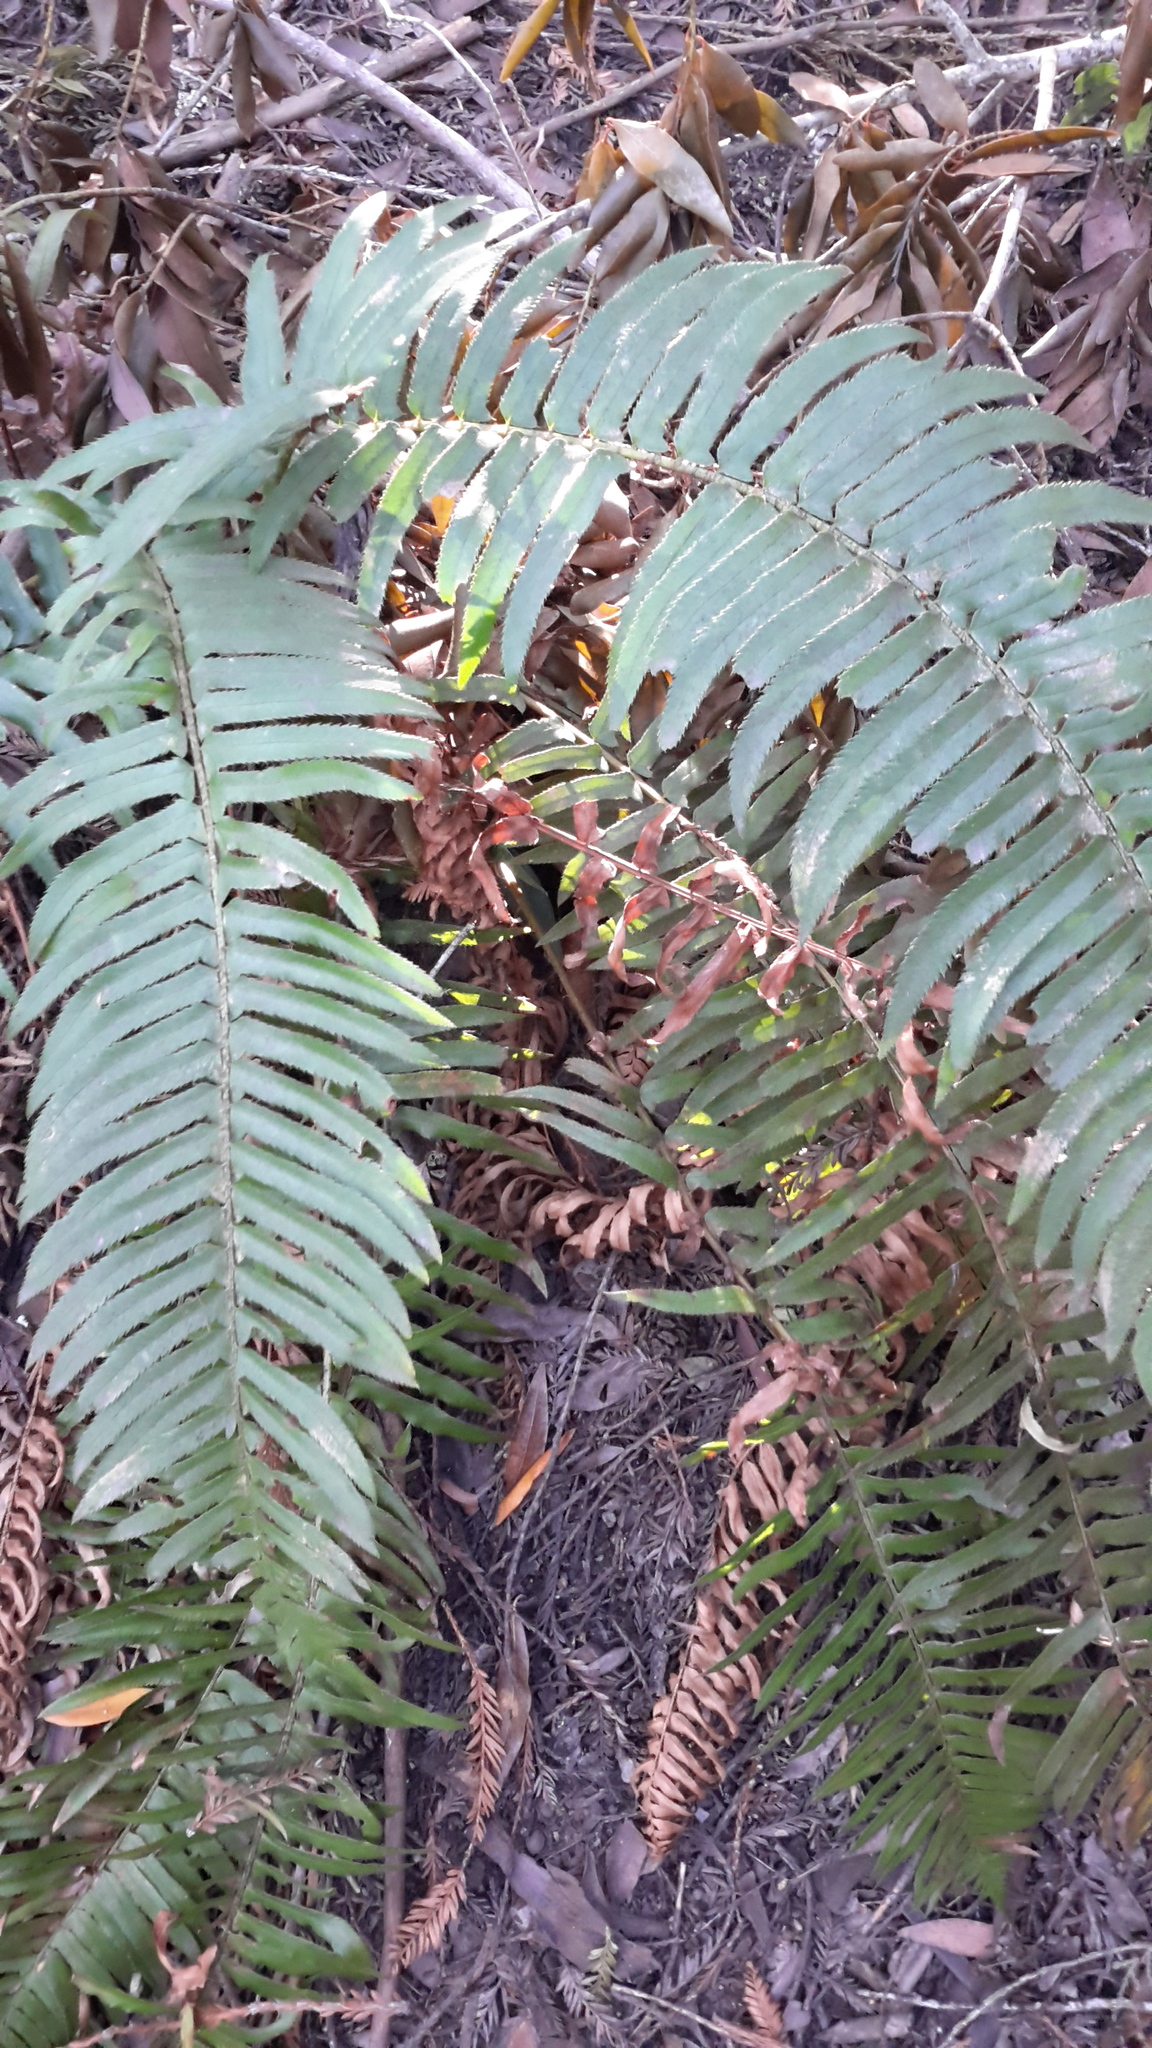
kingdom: Plantae
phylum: Tracheophyta
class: Polypodiopsida
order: Polypodiales
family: Dryopteridaceae
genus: Polystichum
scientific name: Polystichum munitum
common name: Western sword-fern
